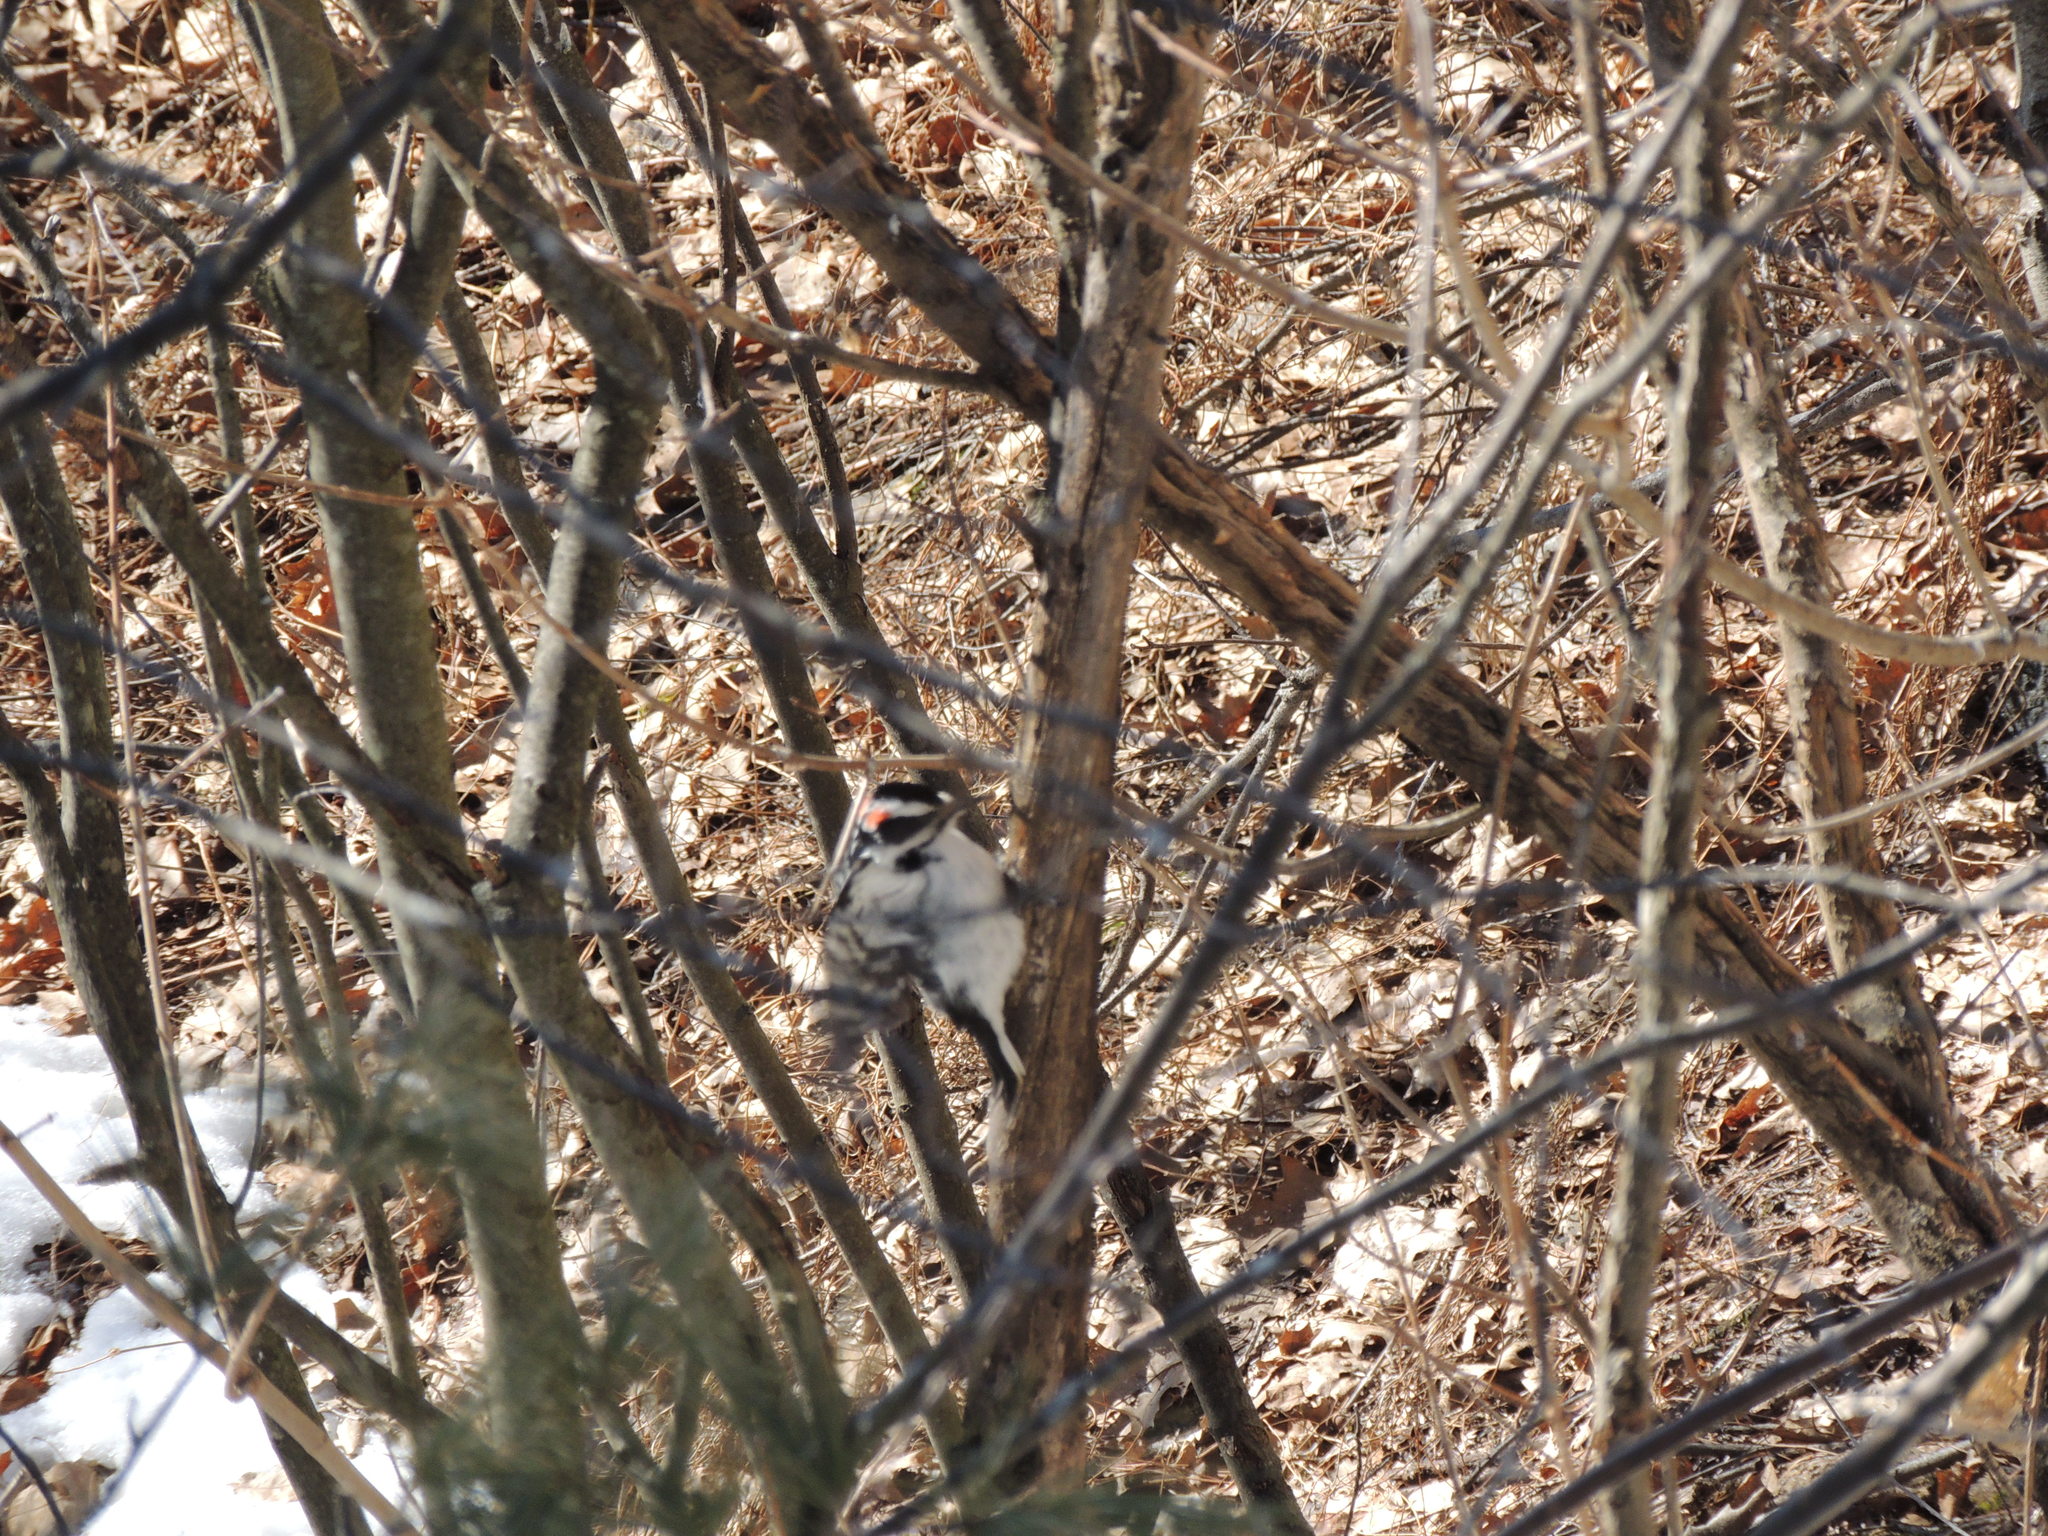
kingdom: Animalia
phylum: Chordata
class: Aves
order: Piciformes
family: Picidae
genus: Leuconotopicus
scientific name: Leuconotopicus villosus
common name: Hairy woodpecker
